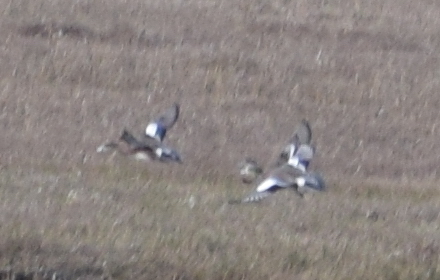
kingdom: Animalia
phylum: Chordata
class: Aves
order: Anseriformes
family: Anatidae
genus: Mareca
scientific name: Mareca americana
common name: American wigeon
